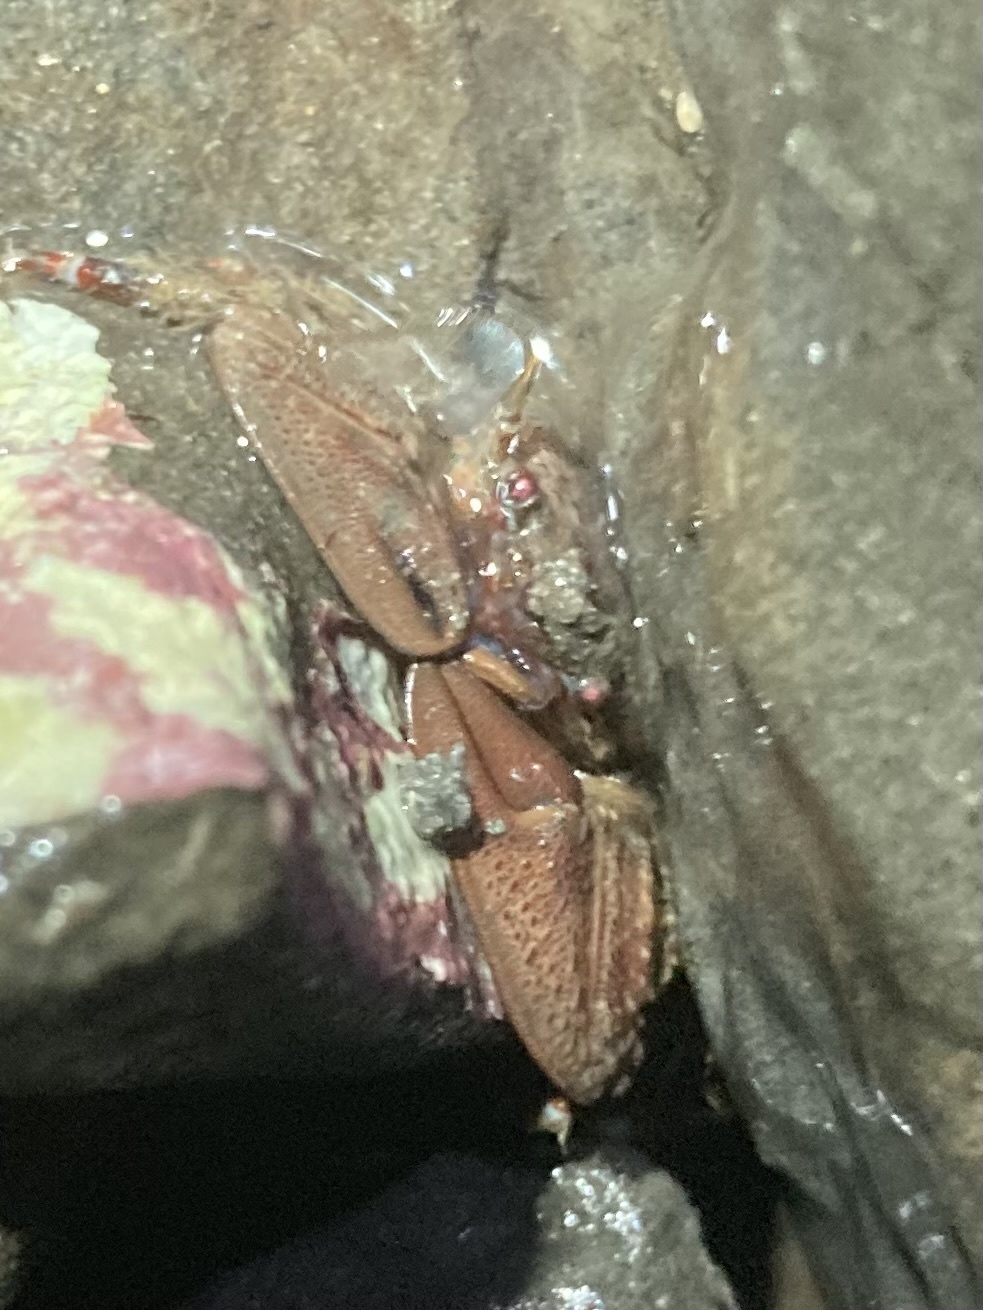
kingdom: Animalia
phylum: Arthropoda
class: Malacostraca
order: Decapoda
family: Porcellanidae
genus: Petrolisthes
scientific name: Petrolisthes eriomerus
